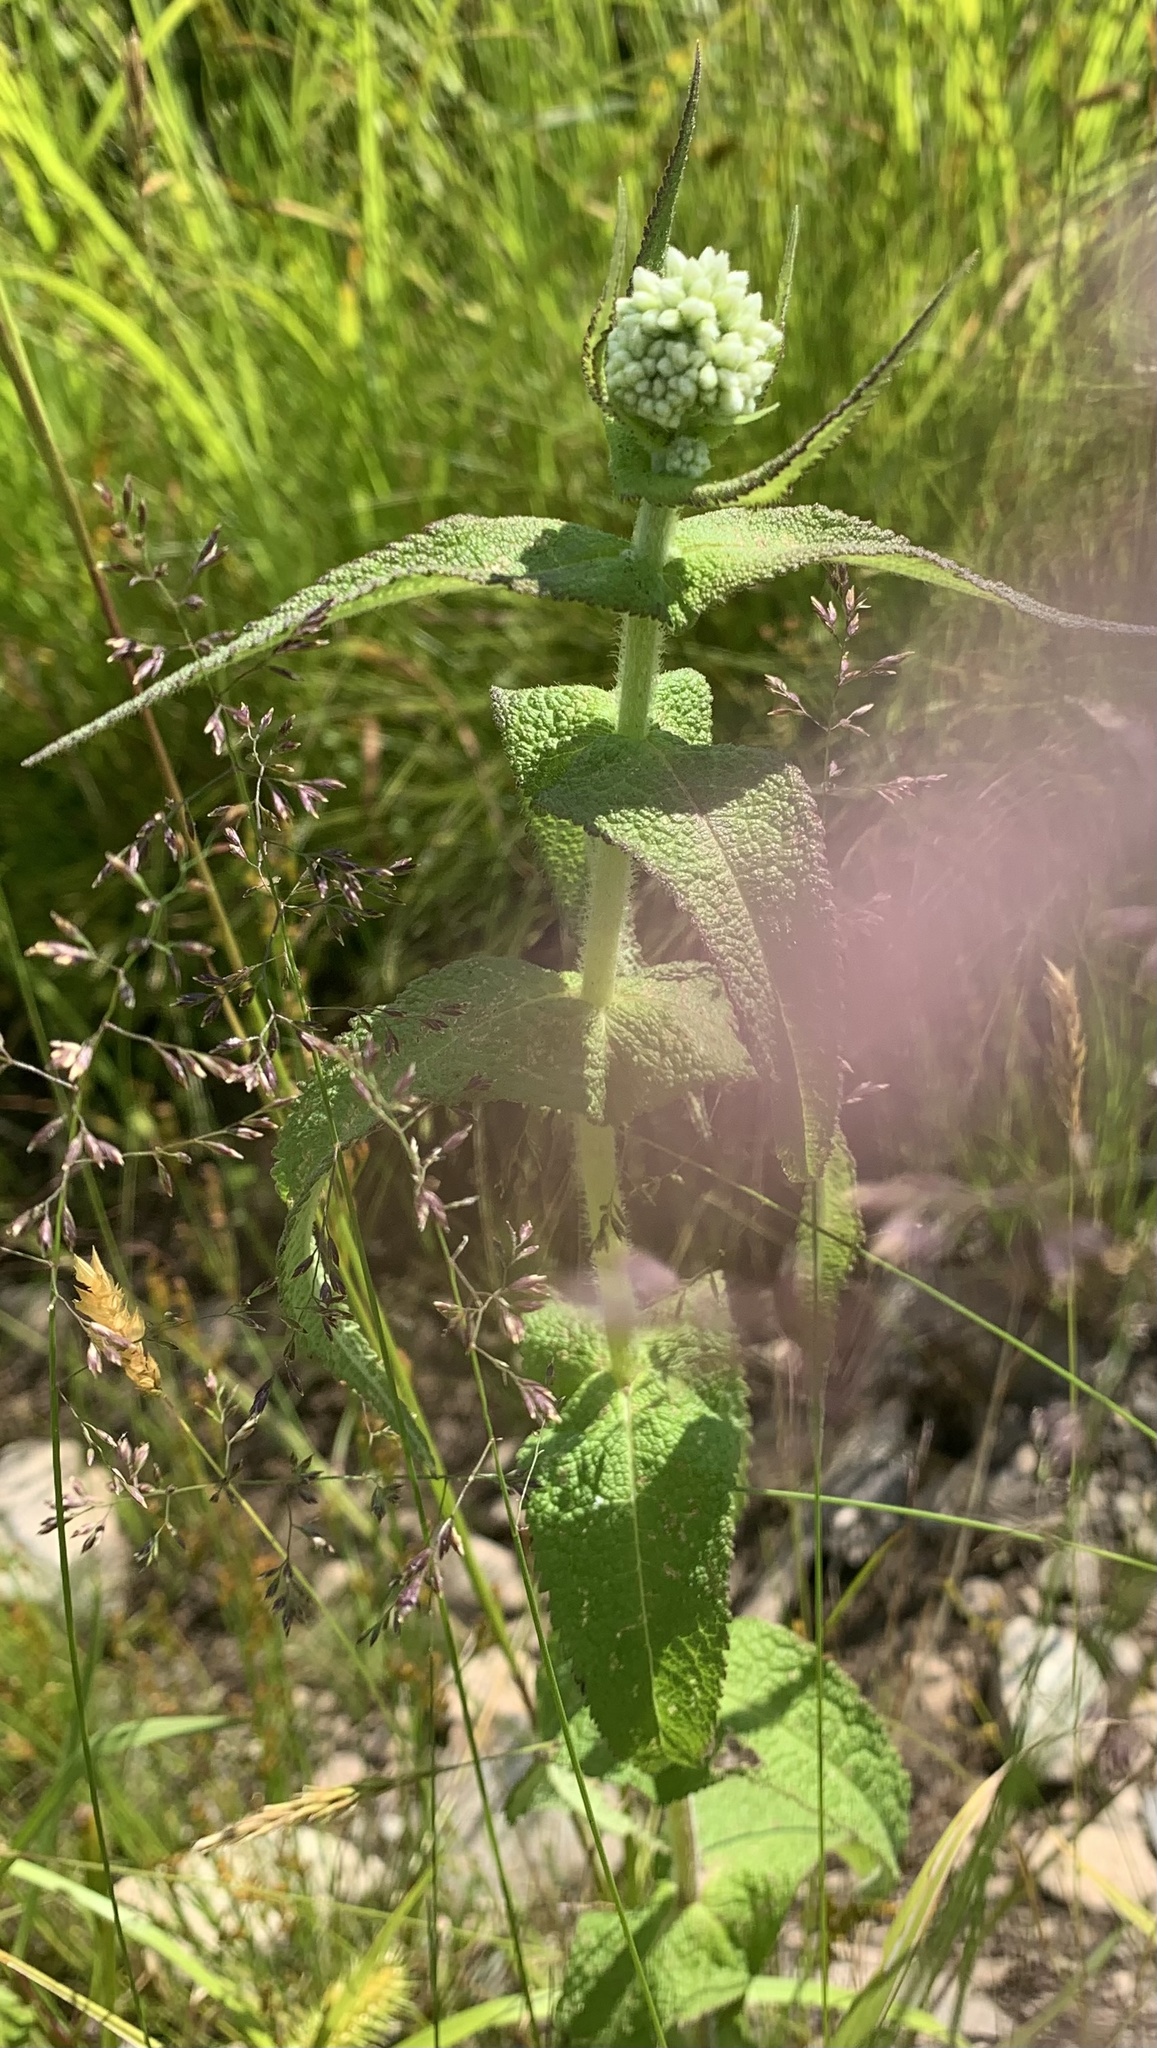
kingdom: Plantae
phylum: Tracheophyta
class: Magnoliopsida
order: Asterales
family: Asteraceae
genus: Eupatorium
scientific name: Eupatorium perfoliatum
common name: Boneset
